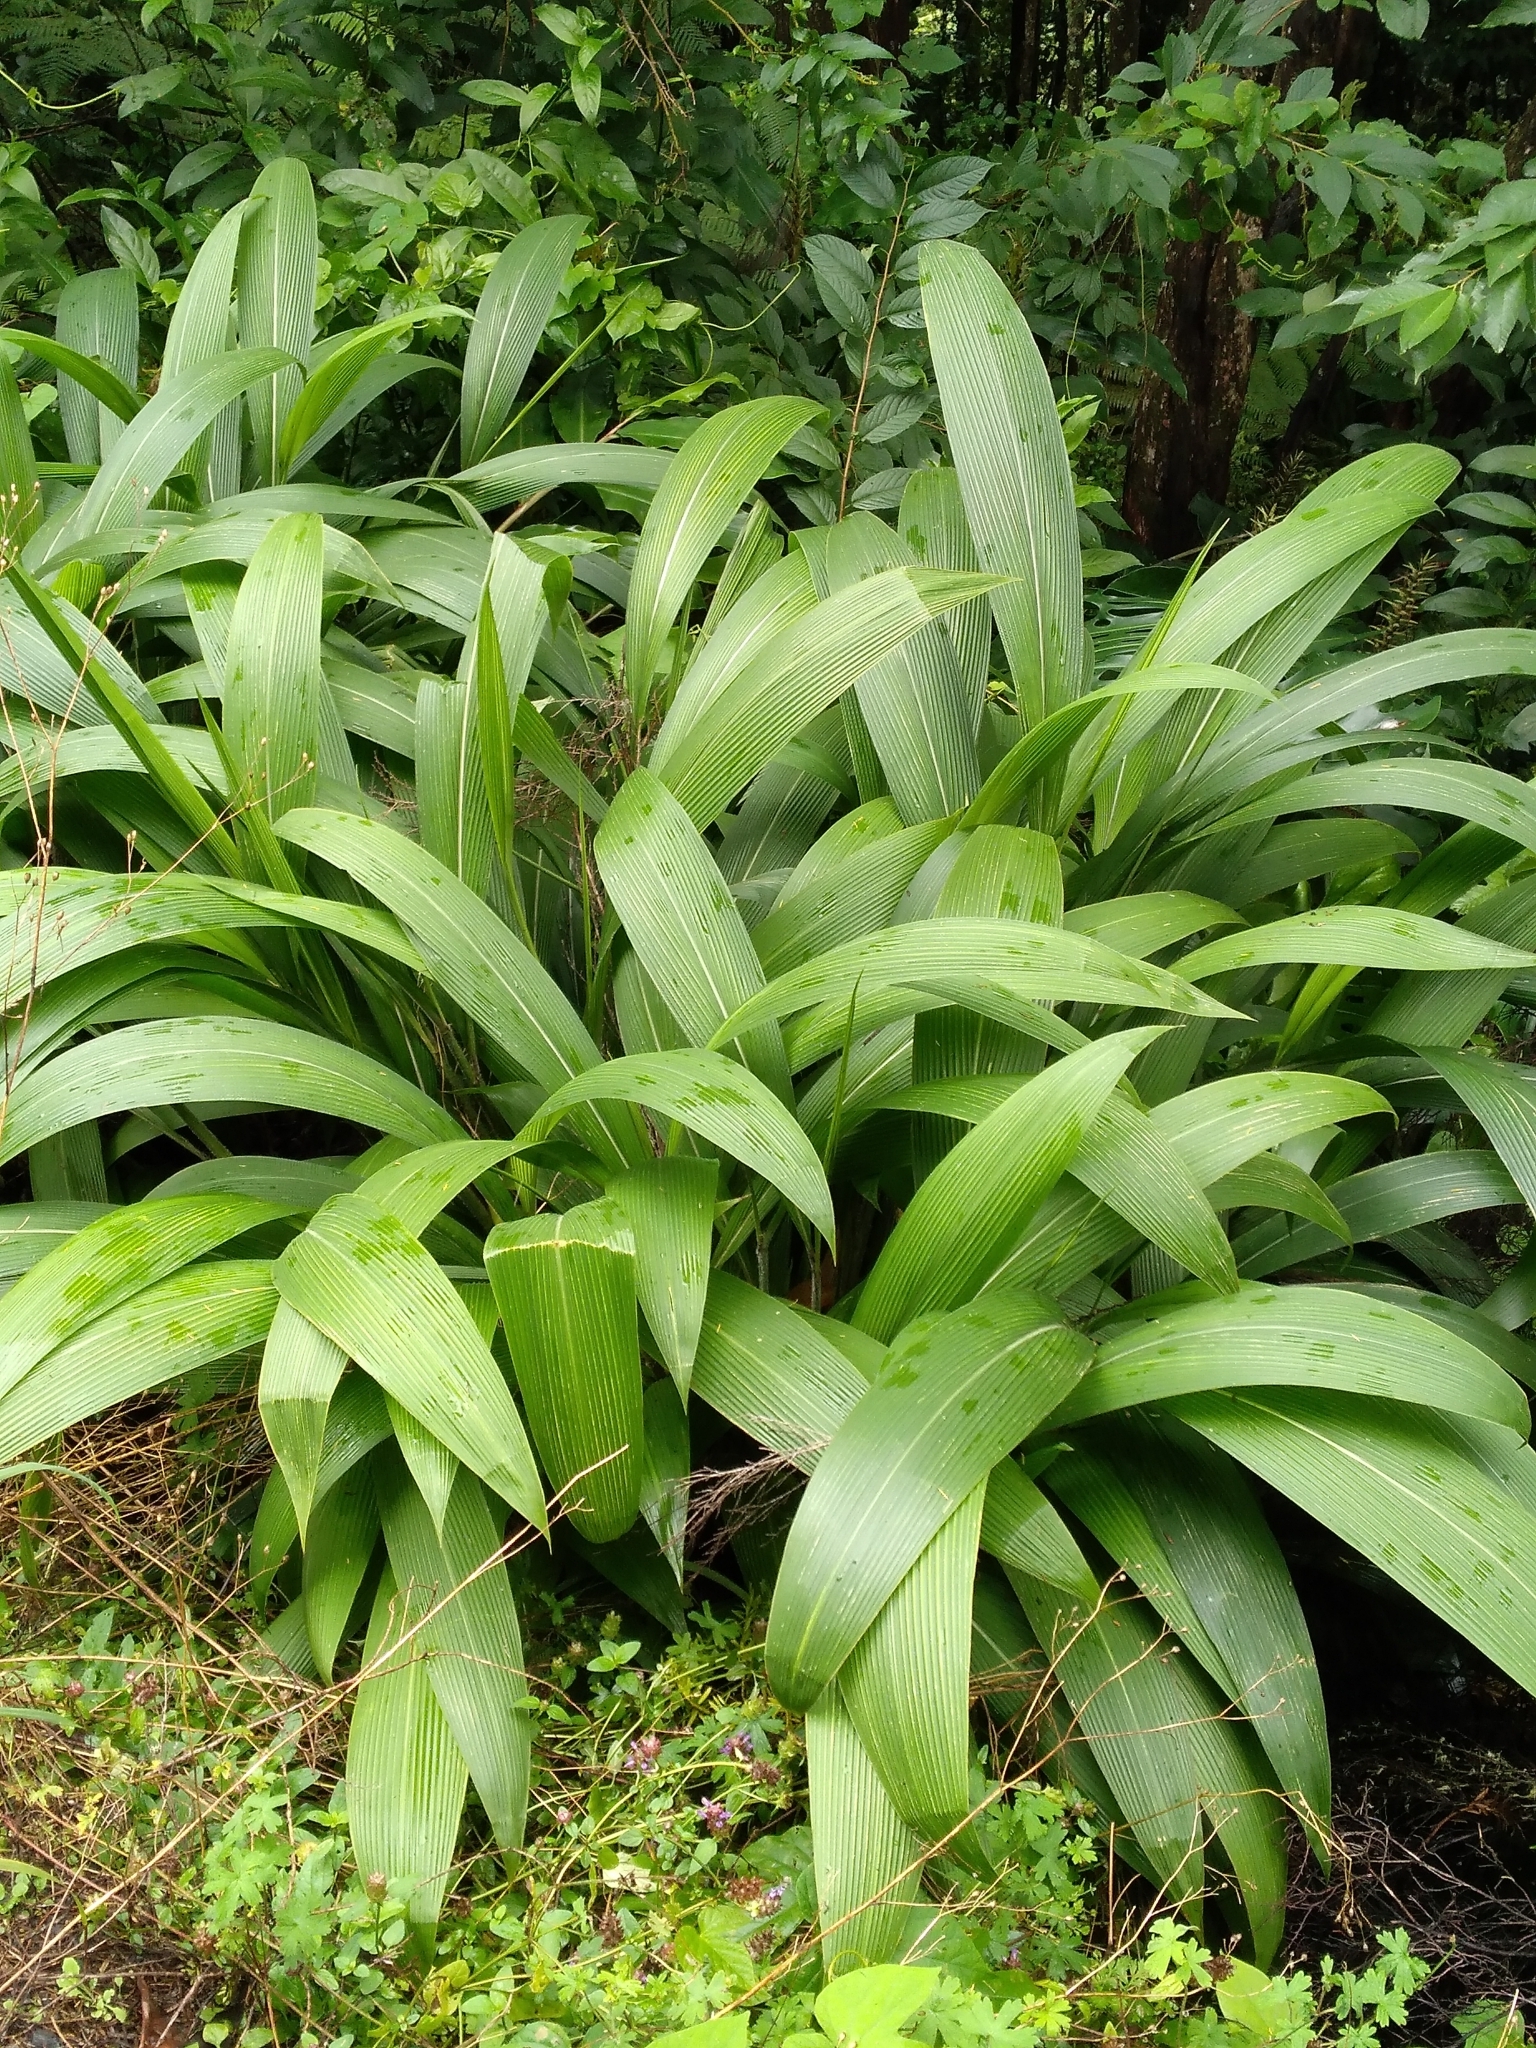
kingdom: Plantae
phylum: Tracheophyta
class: Liliopsida
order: Poales
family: Poaceae
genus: Setaria
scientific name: Setaria palmifolia
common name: Broadleaved bristlegrass
